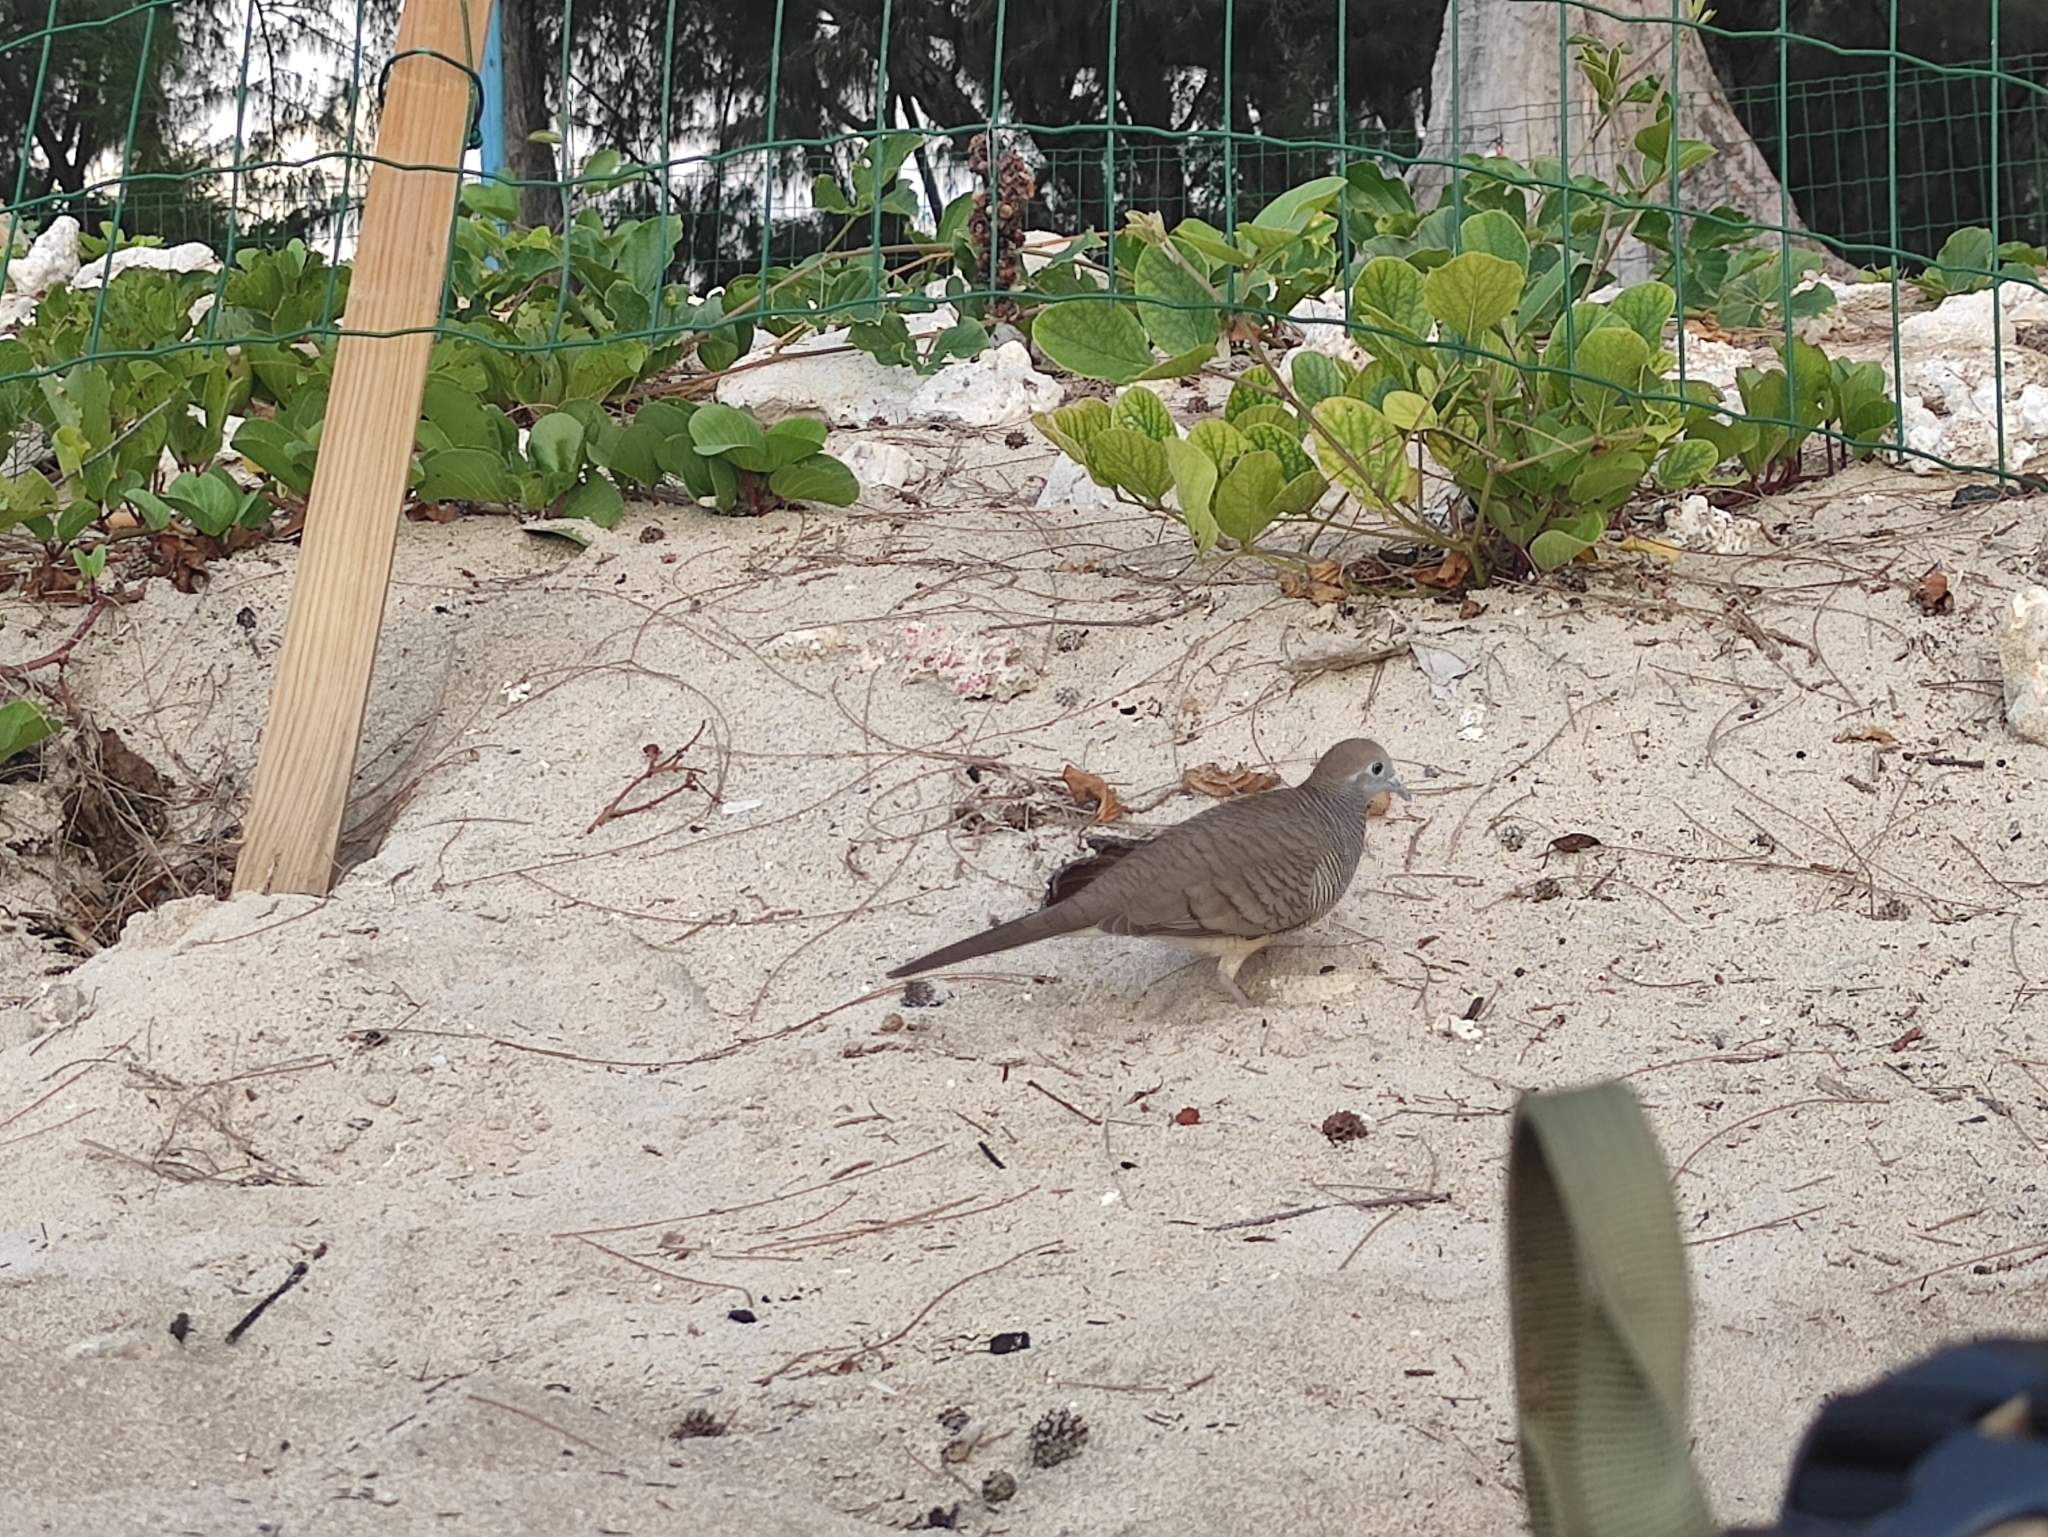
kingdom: Animalia
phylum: Chordata
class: Aves
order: Columbiformes
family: Columbidae
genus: Geopelia
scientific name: Geopelia striata
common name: Zebra dove
